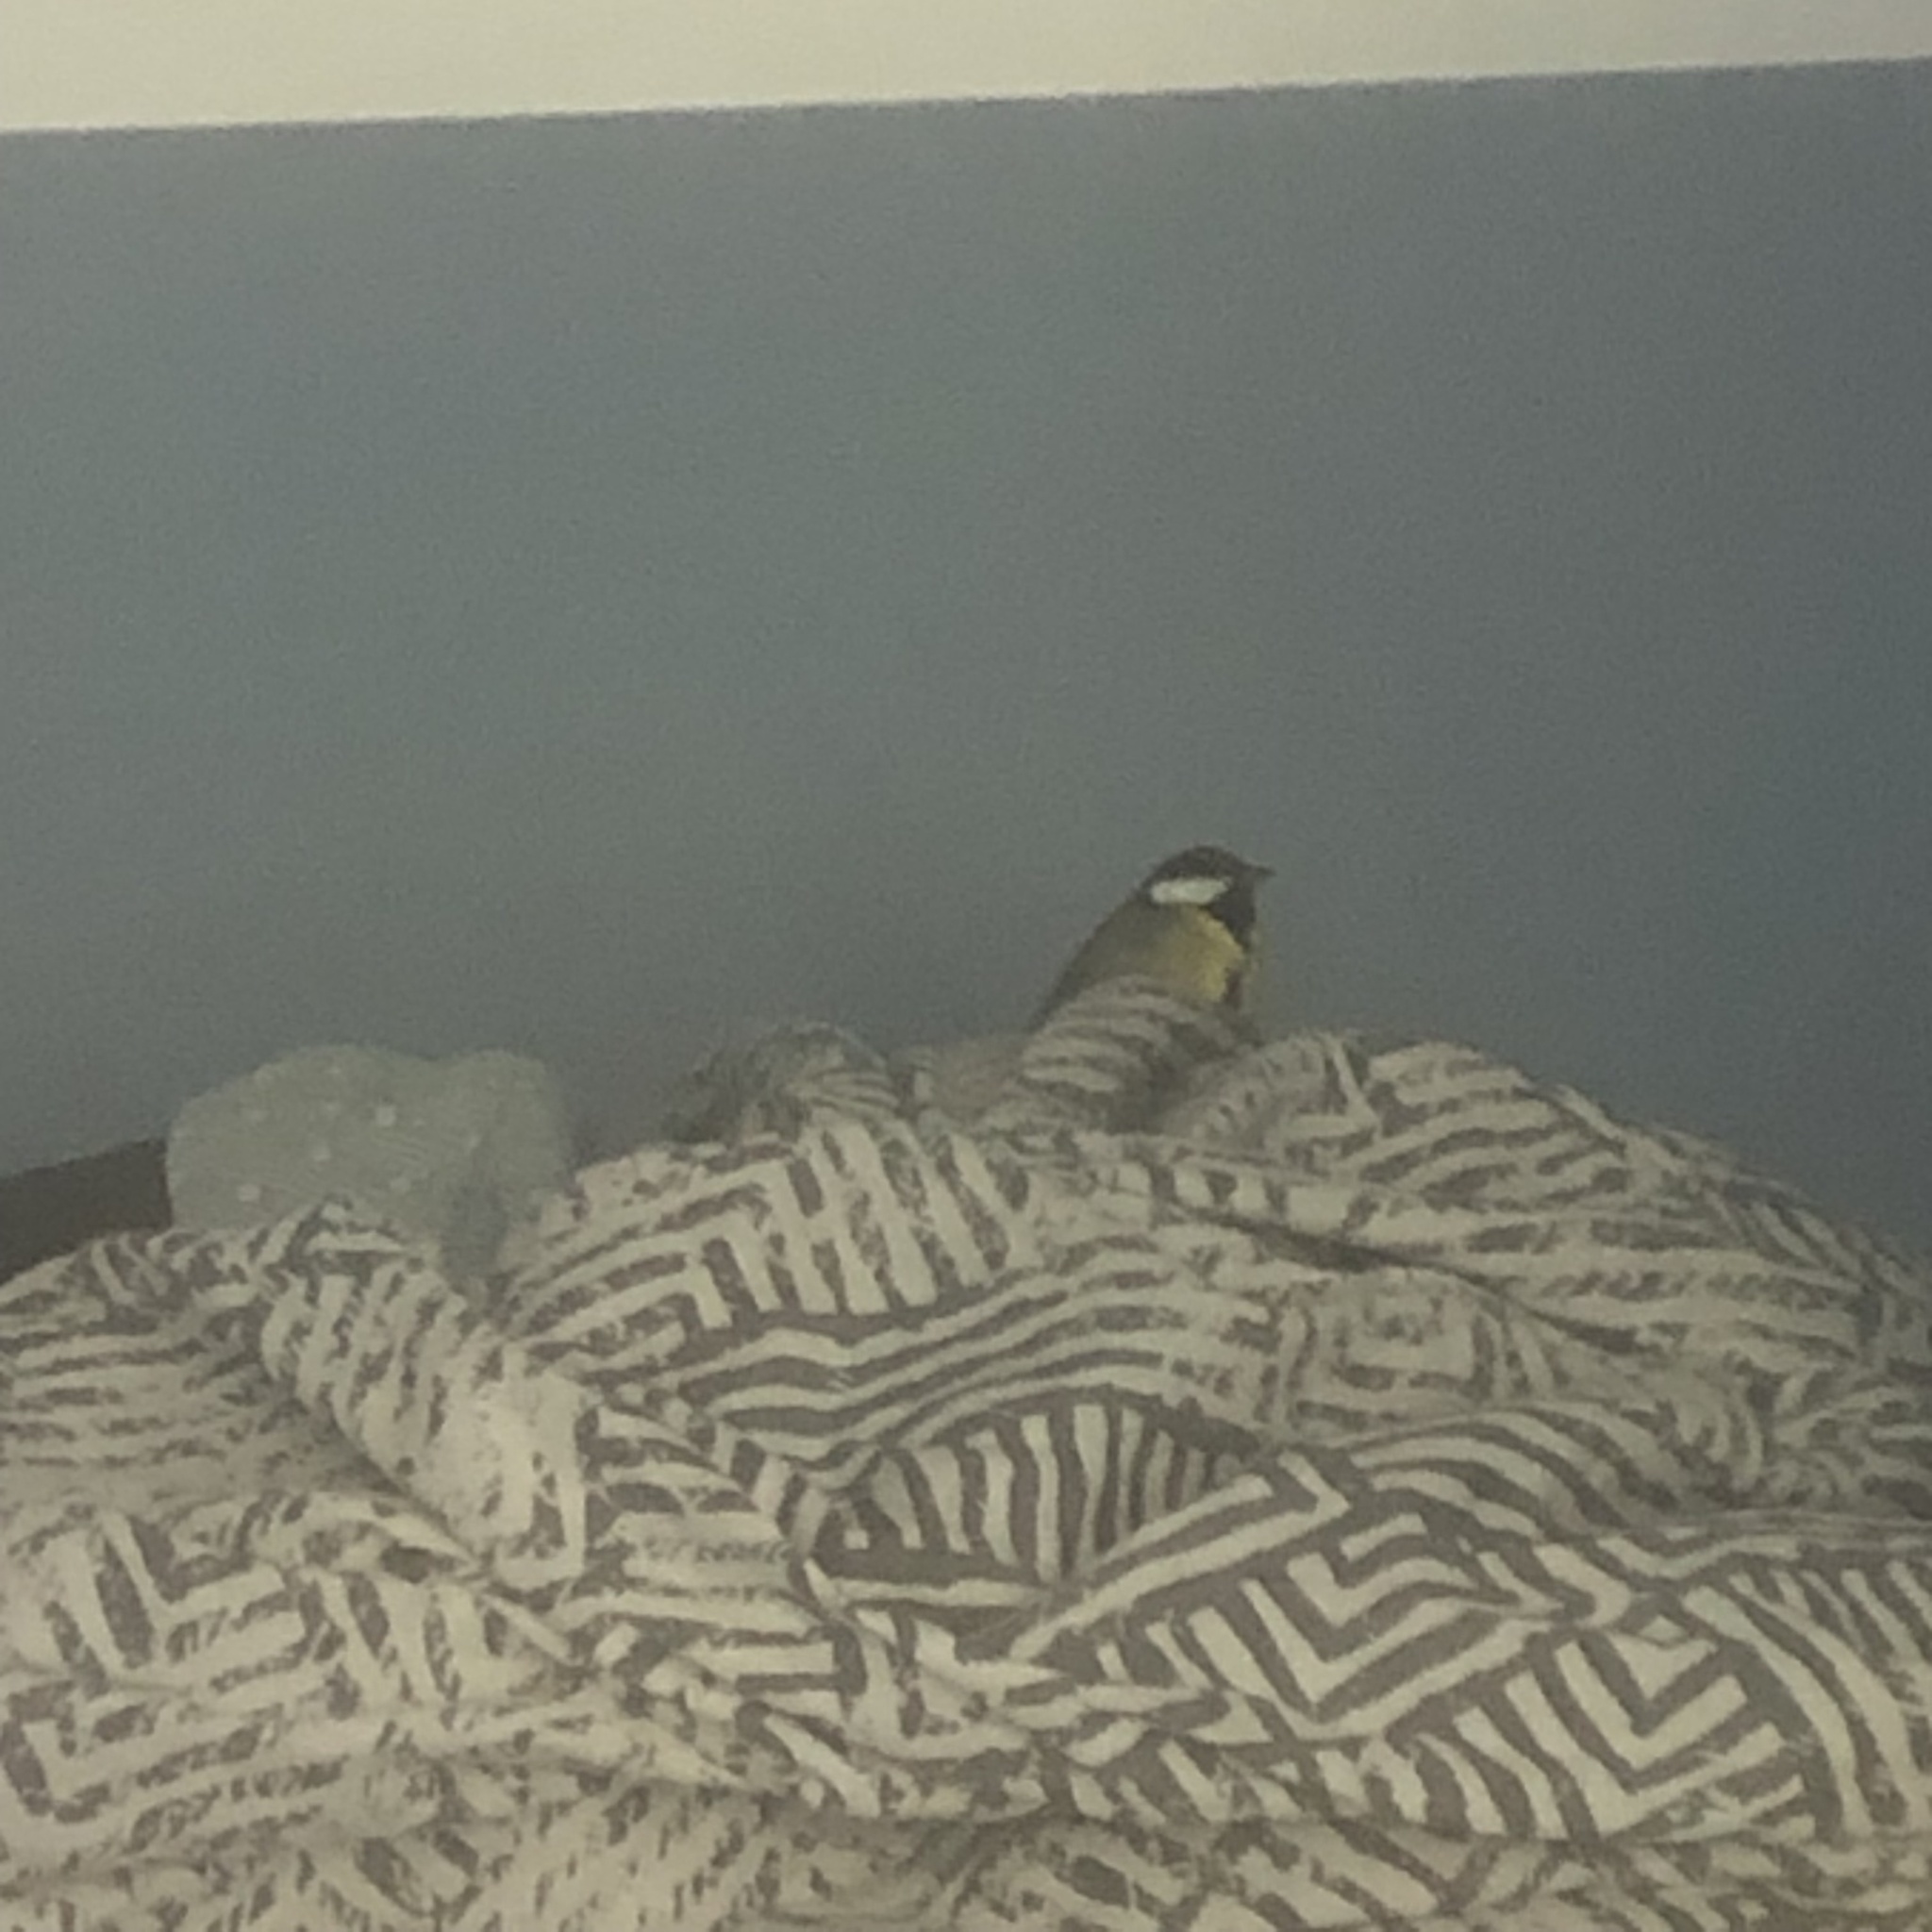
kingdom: Animalia
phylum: Chordata
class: Aves
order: Passeriformes
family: Paridae
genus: Parus
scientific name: Parus major
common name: Great tit
